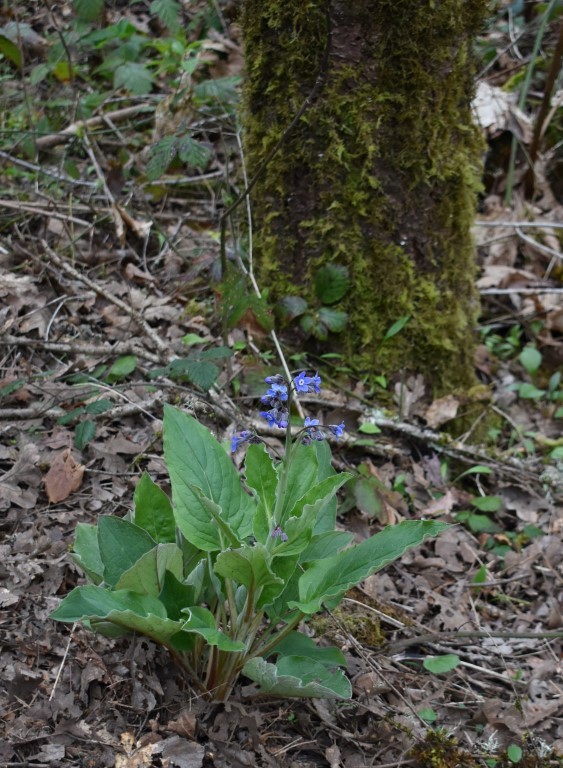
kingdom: Plantae
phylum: Tracheophyta
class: Magnoliopsida
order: Boraginales
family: Boraginaceae
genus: Adelinia
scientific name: Adelinia grande
